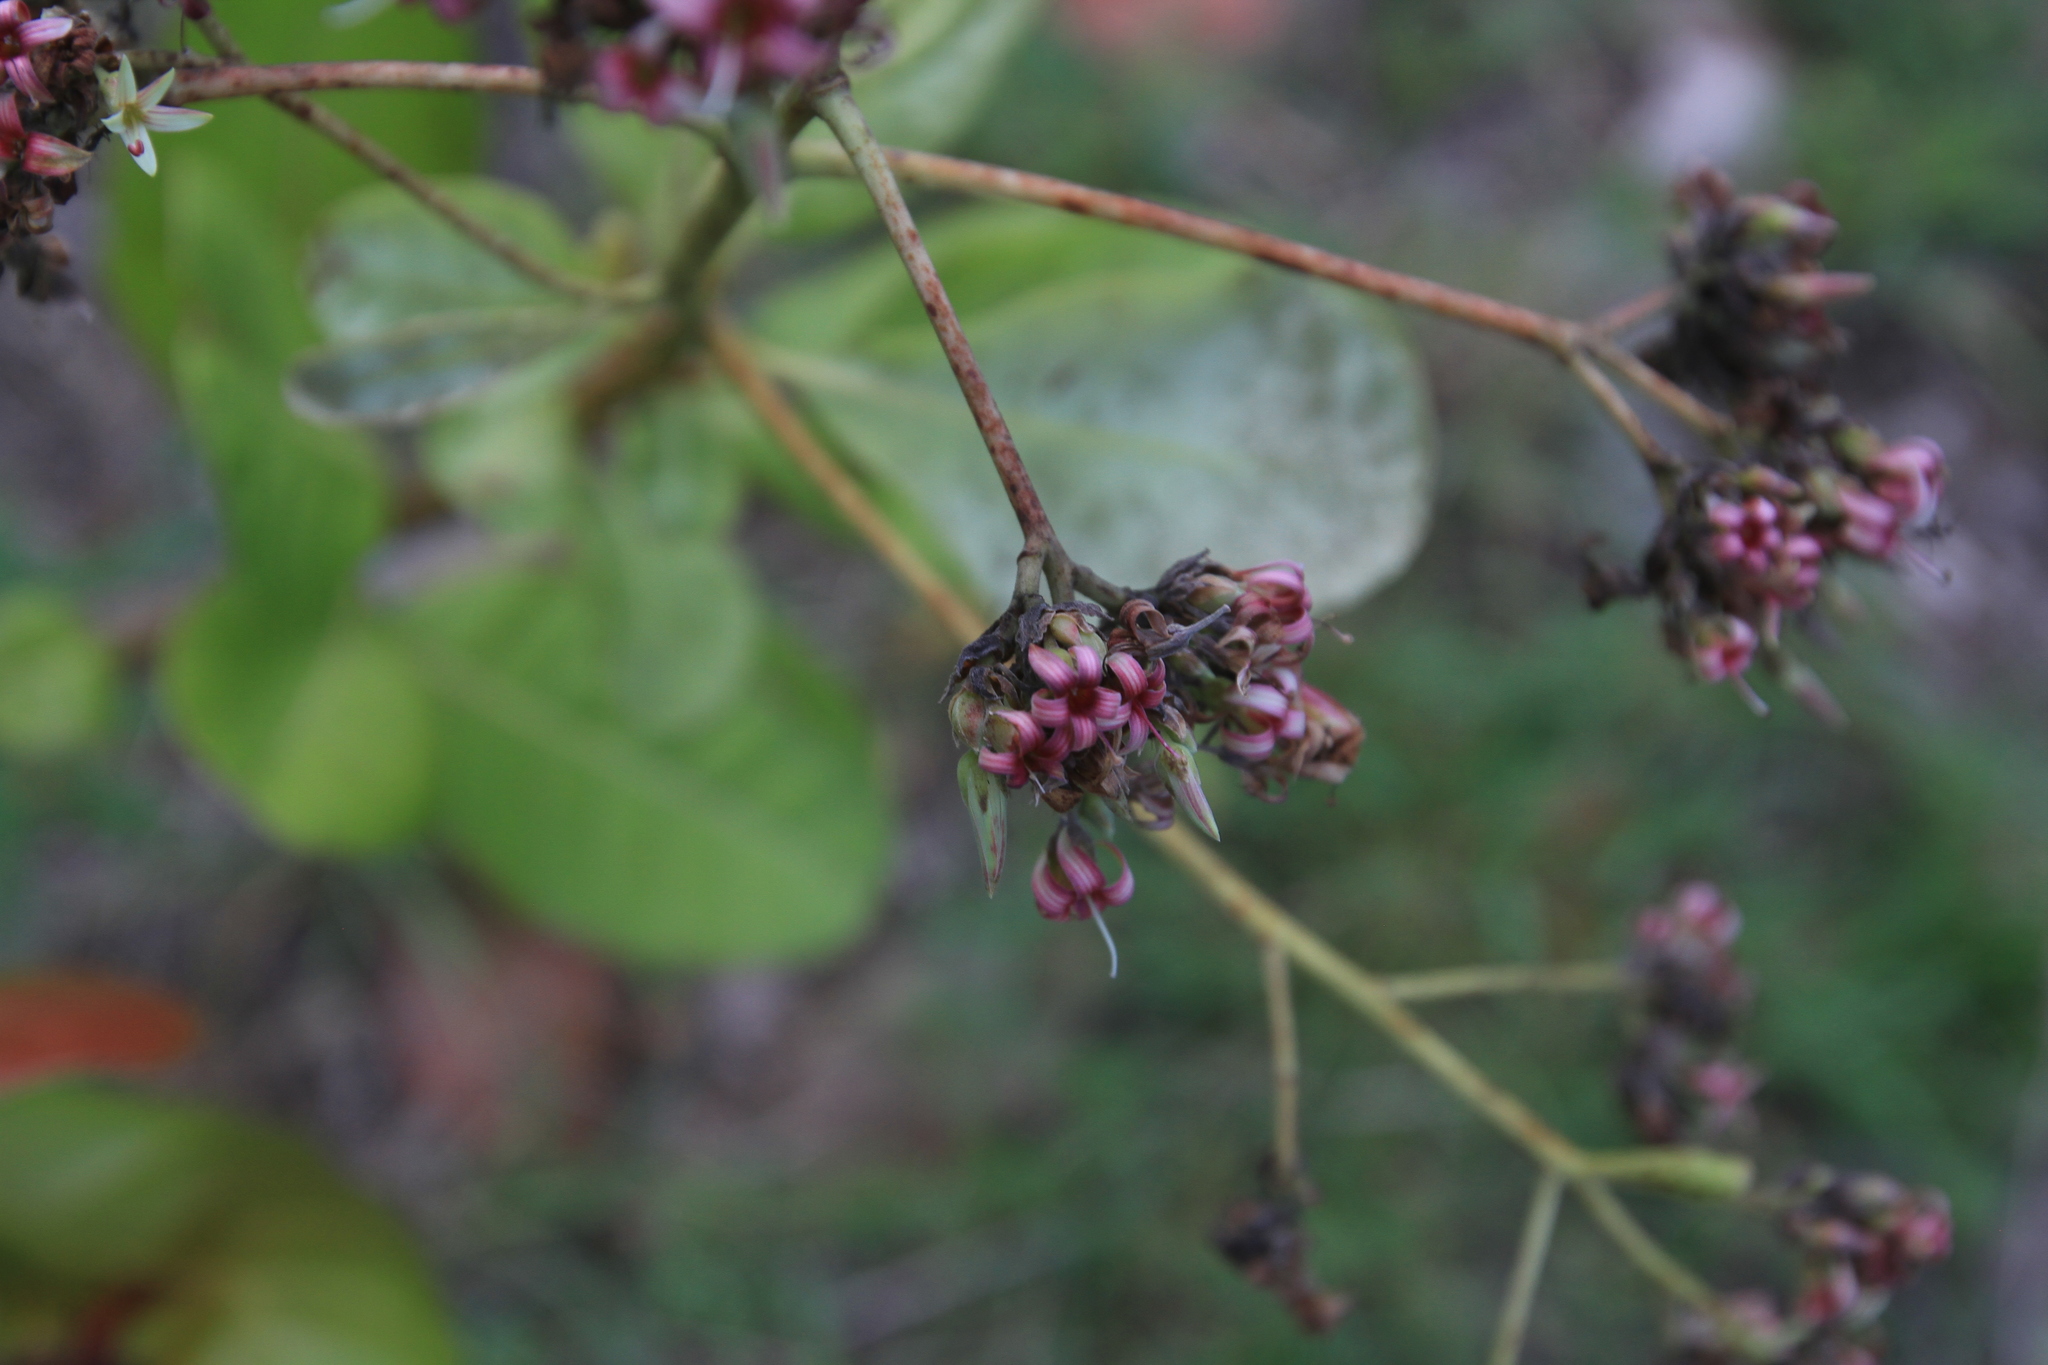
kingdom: Plantae
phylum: Tracheophyta
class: Magnoliopsida
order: Sapindales
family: Anacardiaceae
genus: Anacardium
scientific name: Anacardium occidentale
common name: Cashew
